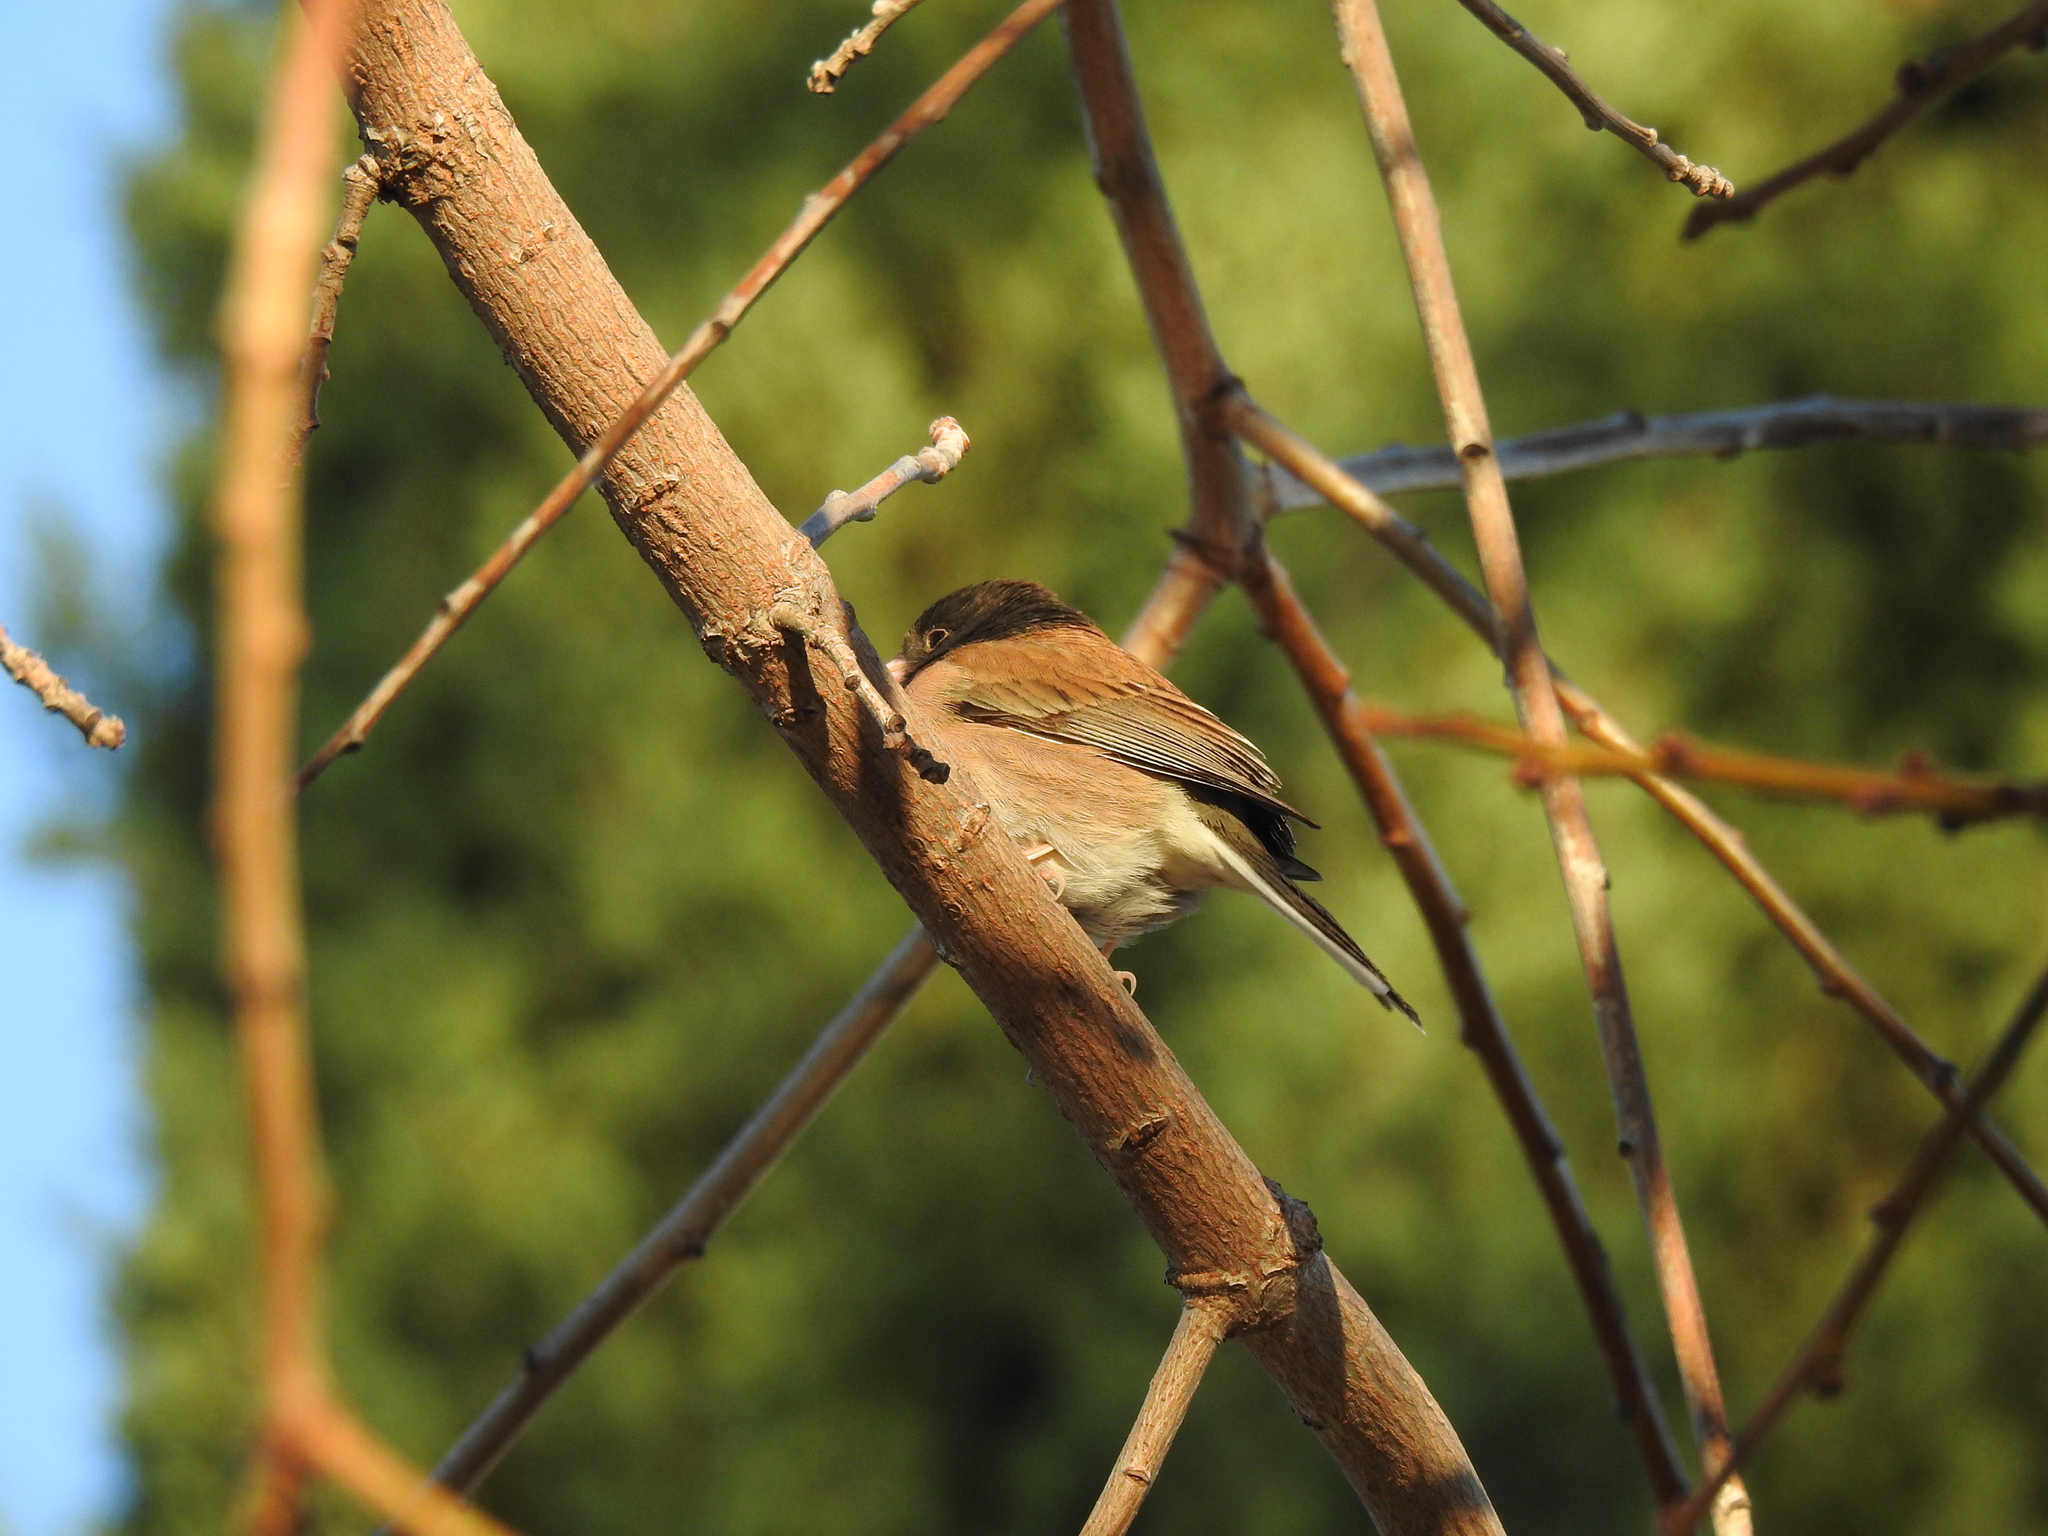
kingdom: Animalia
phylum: Chordata
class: Aves
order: Passeriformes
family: Passerellidae
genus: Junco
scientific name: Junco hyemalis
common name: Dark-eyed junco
